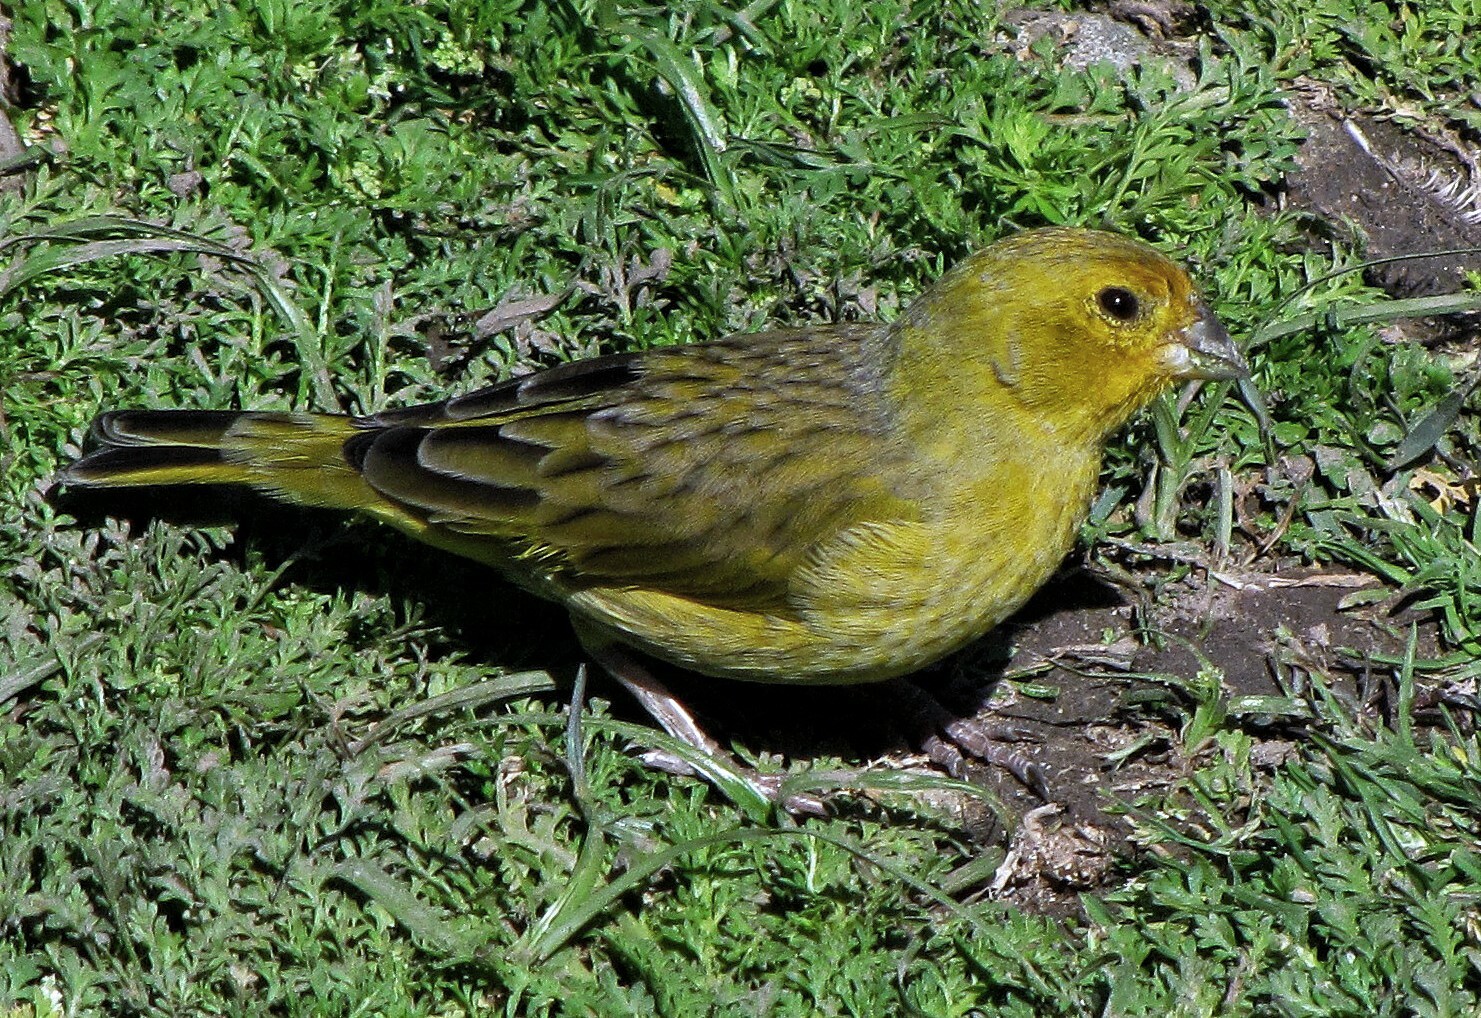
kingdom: Animalia
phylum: Chordata
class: Aves
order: Passeriformes
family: Thraupidae
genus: Sicalis
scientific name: Sicalis flaveola
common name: Saffron finch
